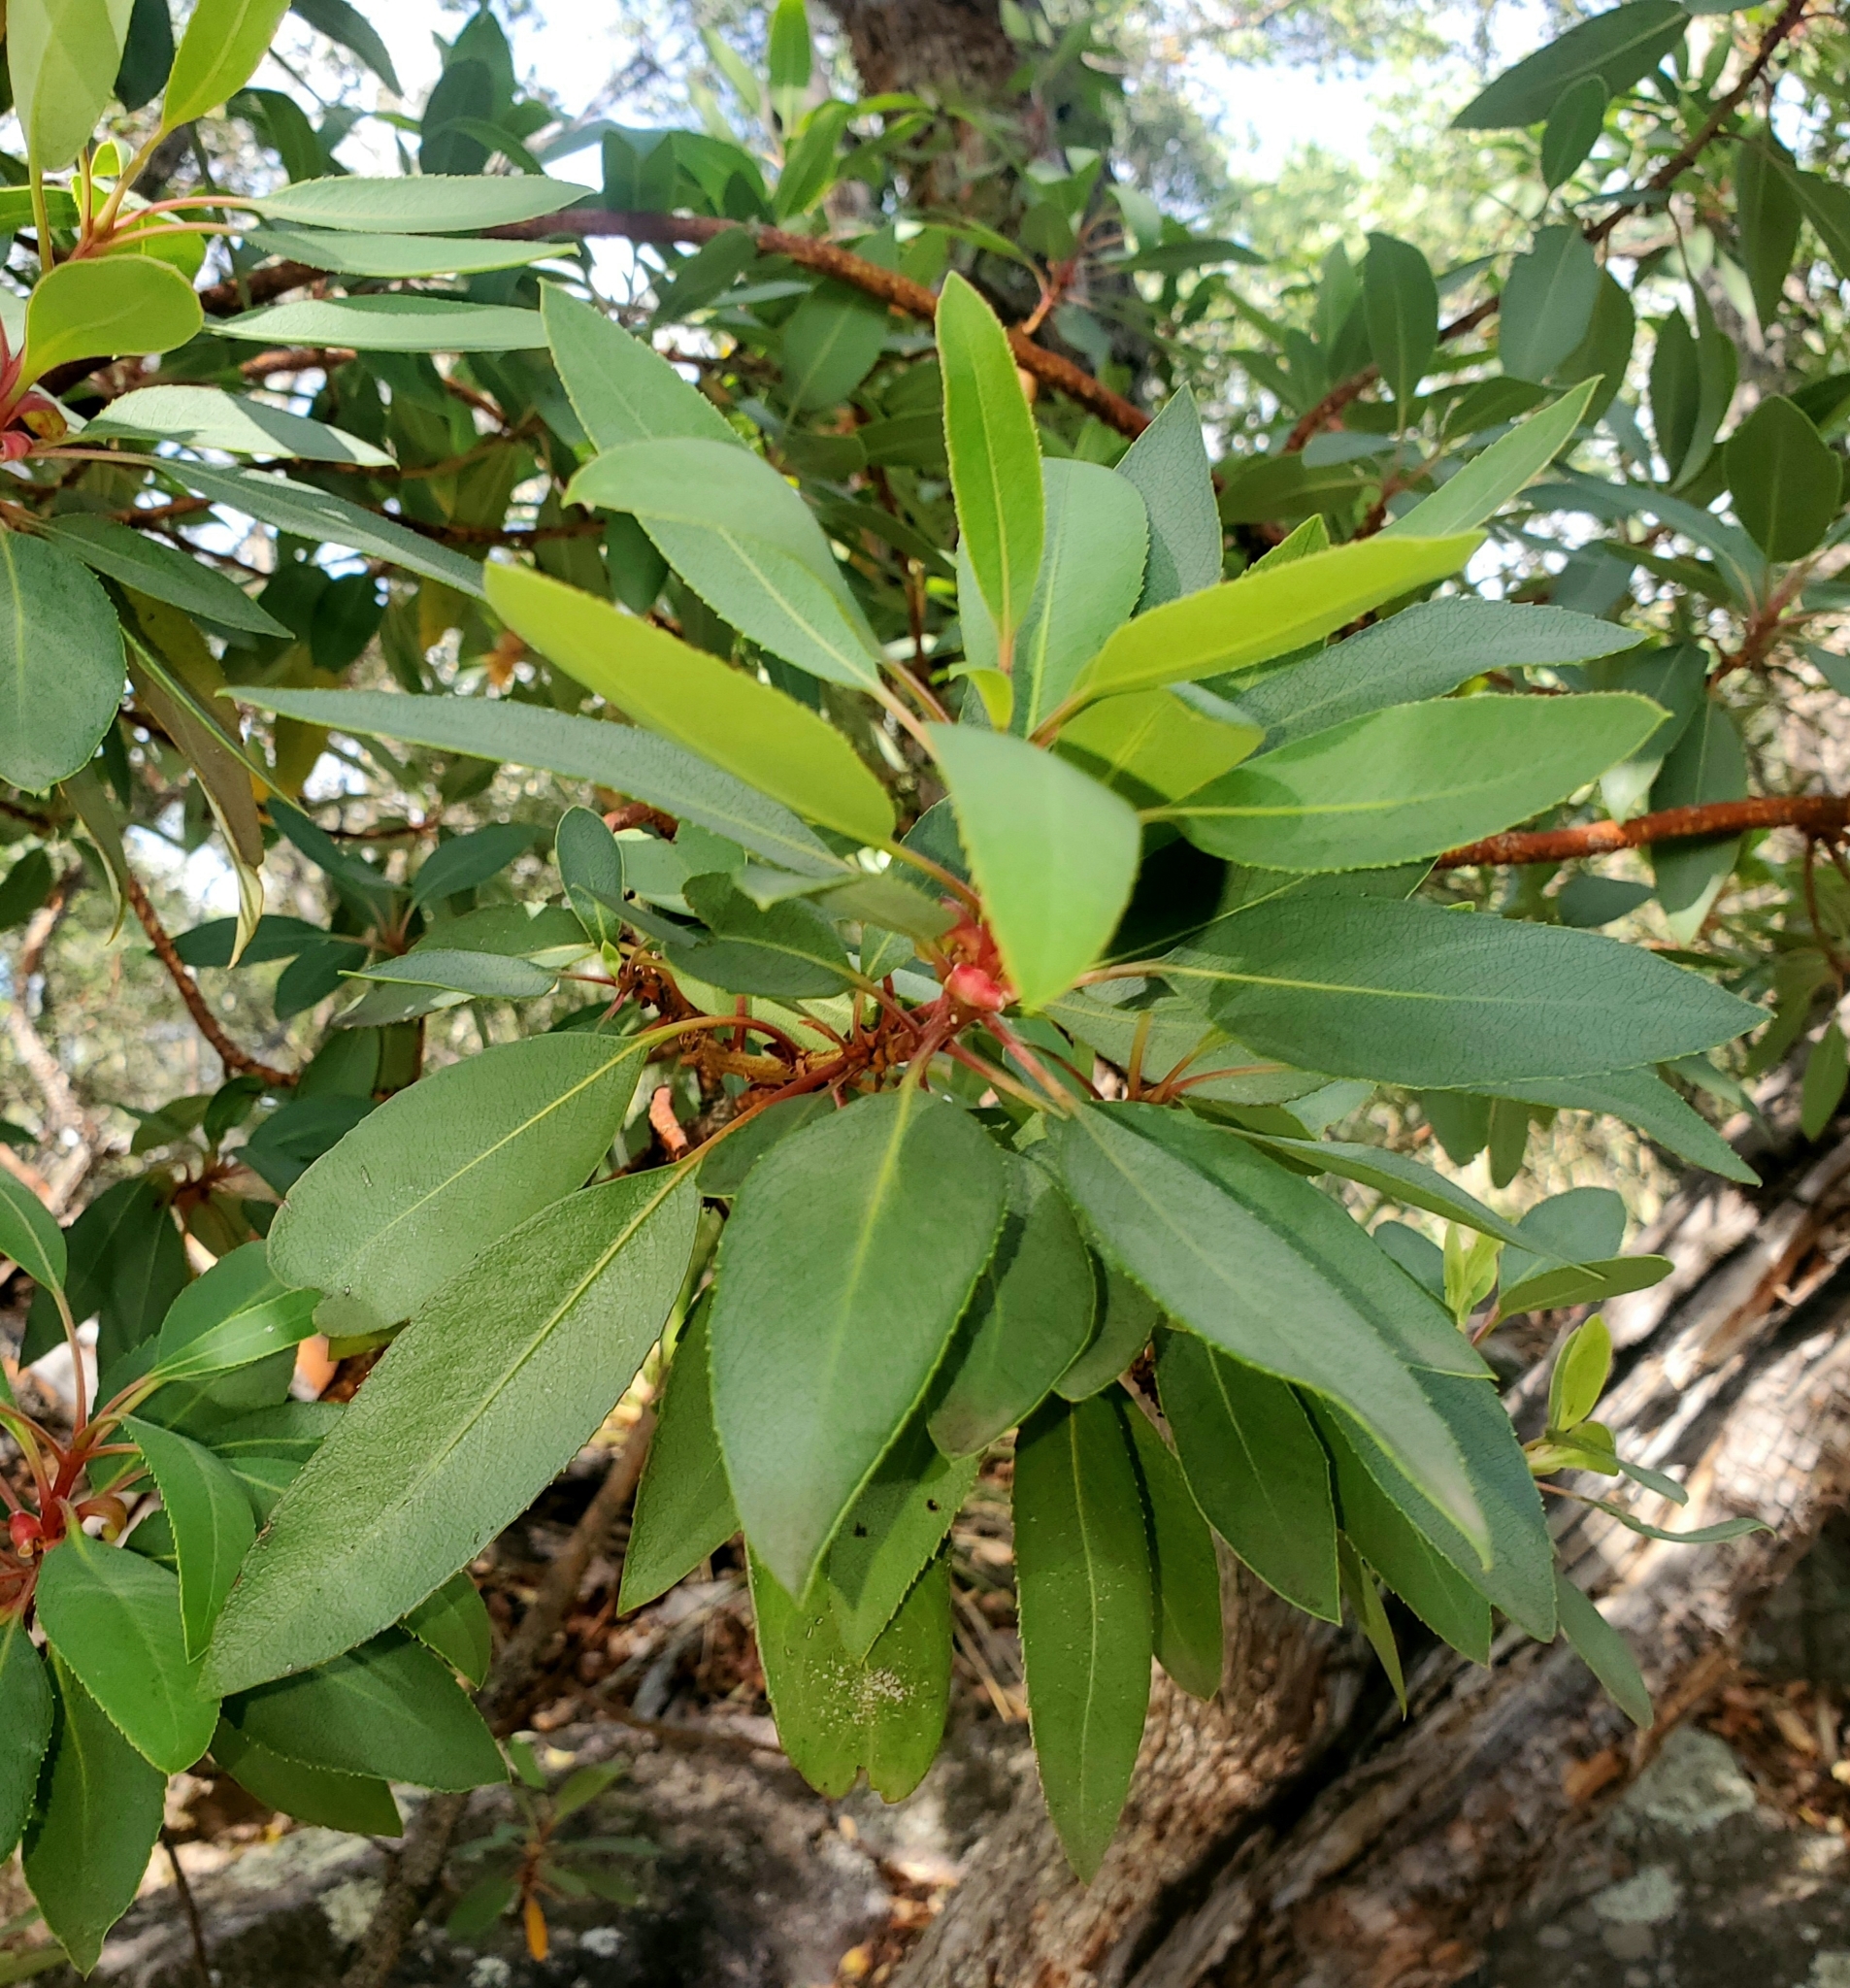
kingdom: Plantae
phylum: Tracheophyta
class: Magnoliopsida
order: Ericales
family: Ericaceae
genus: Arbutus
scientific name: Arbutus arizonica
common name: Arizona madrone
